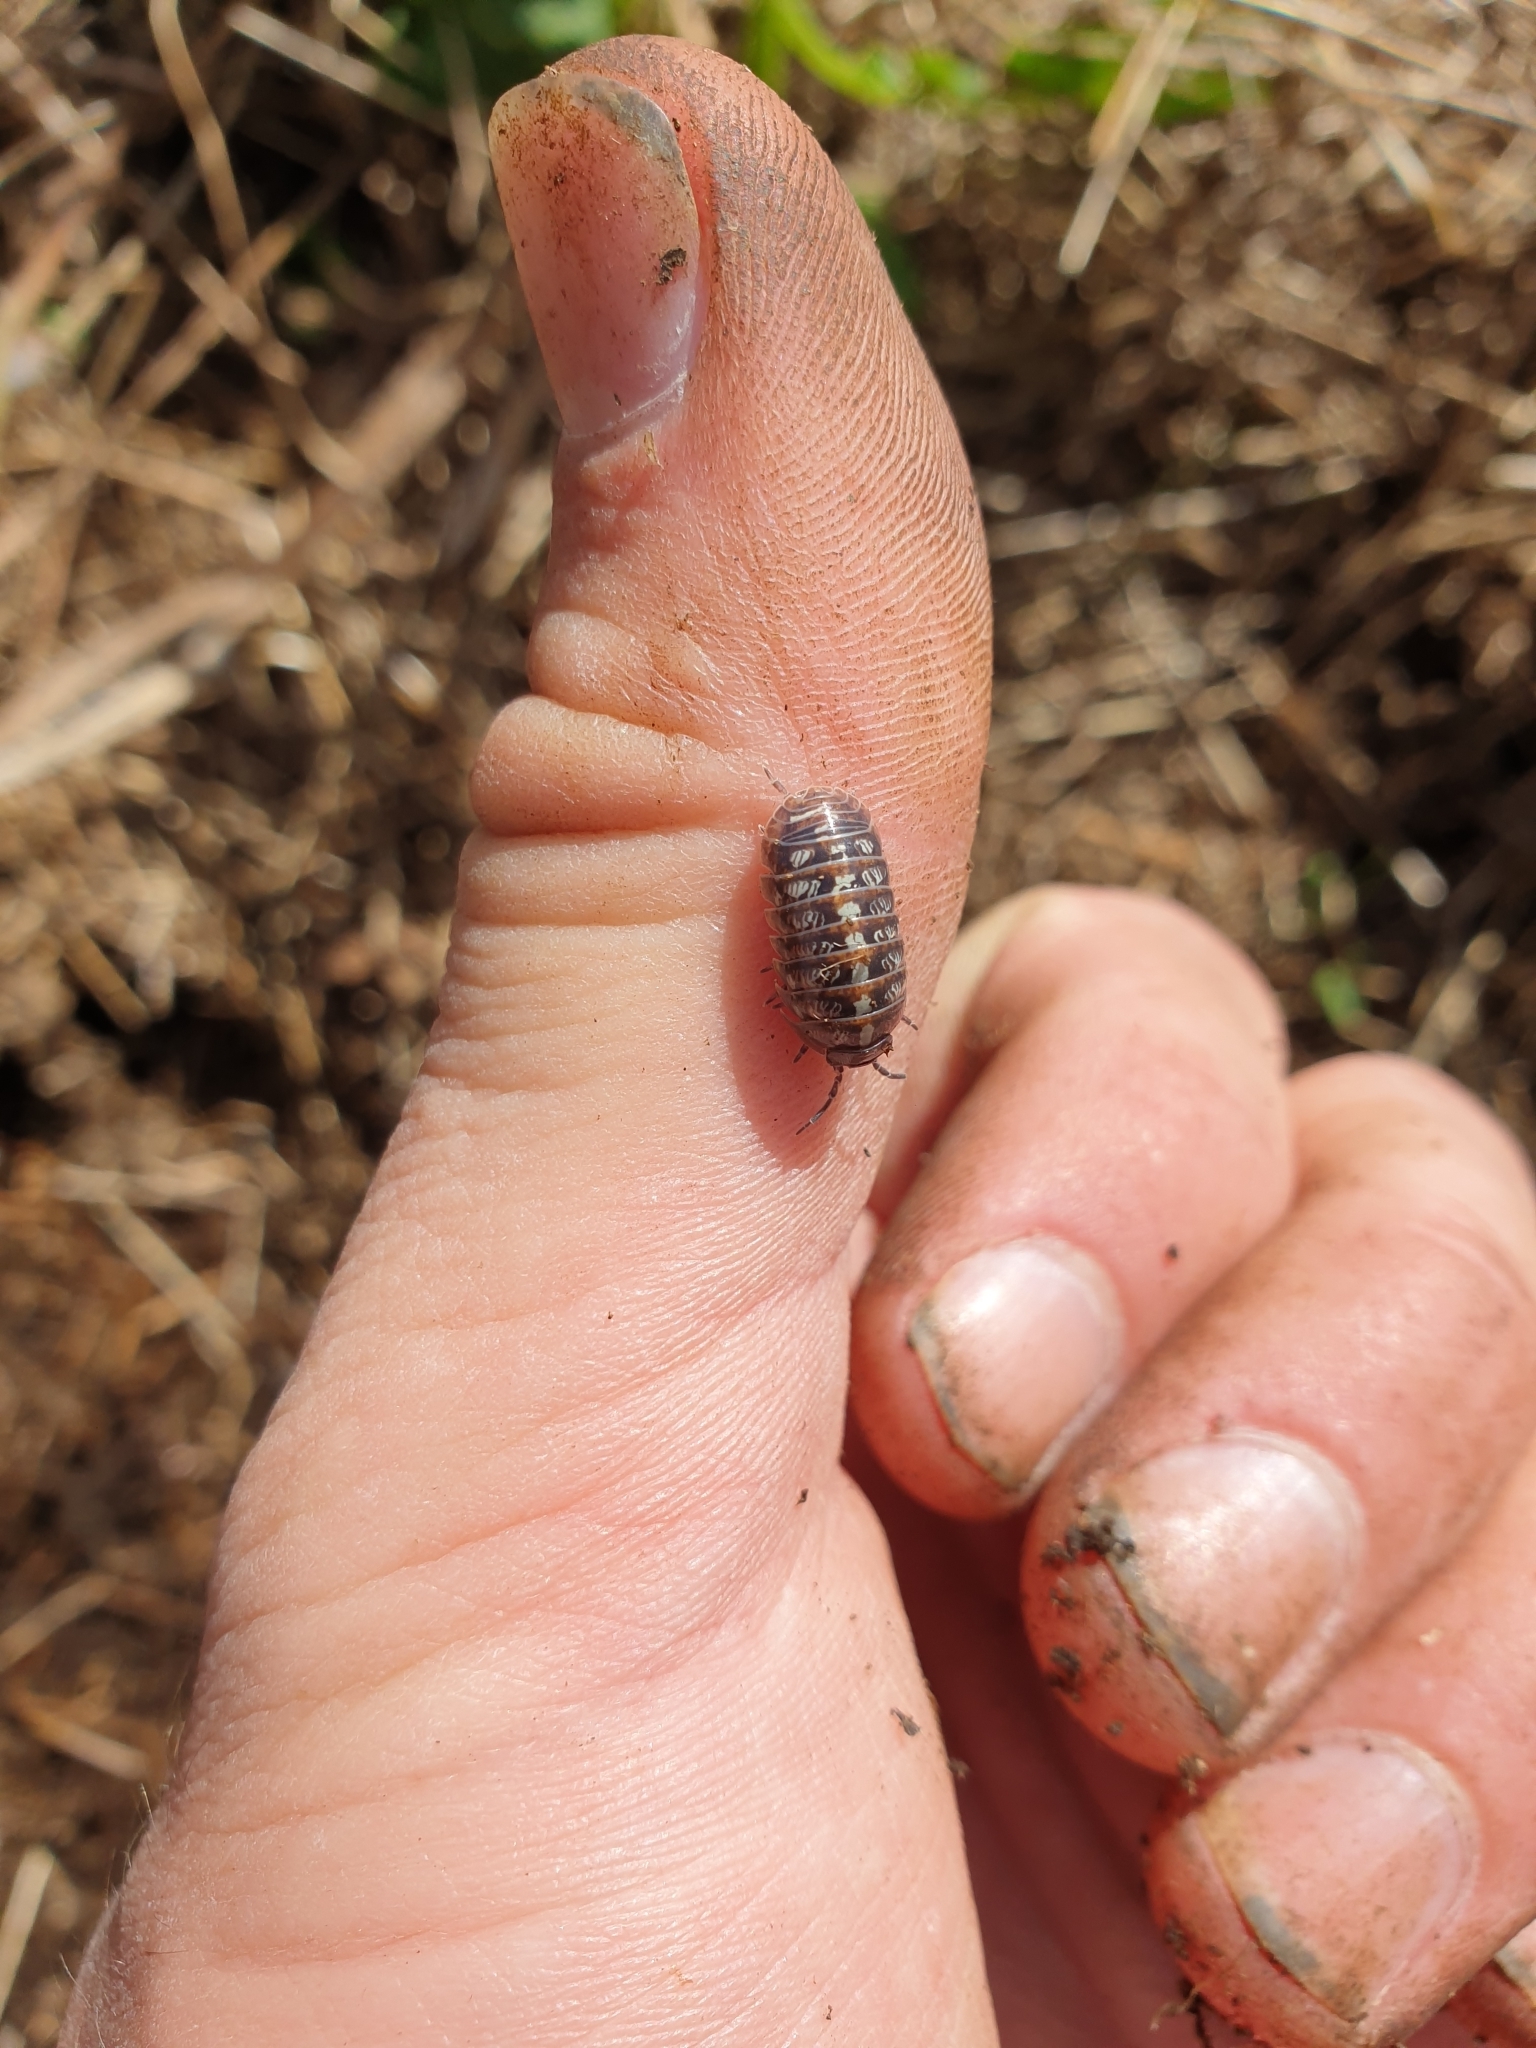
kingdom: Animalia
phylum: Arthropoda
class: Malacostraca
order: Isopoda
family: Armadillidiidae
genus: Armadillidium
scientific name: Armadillidium vulgare
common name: Common pill woodlouse
